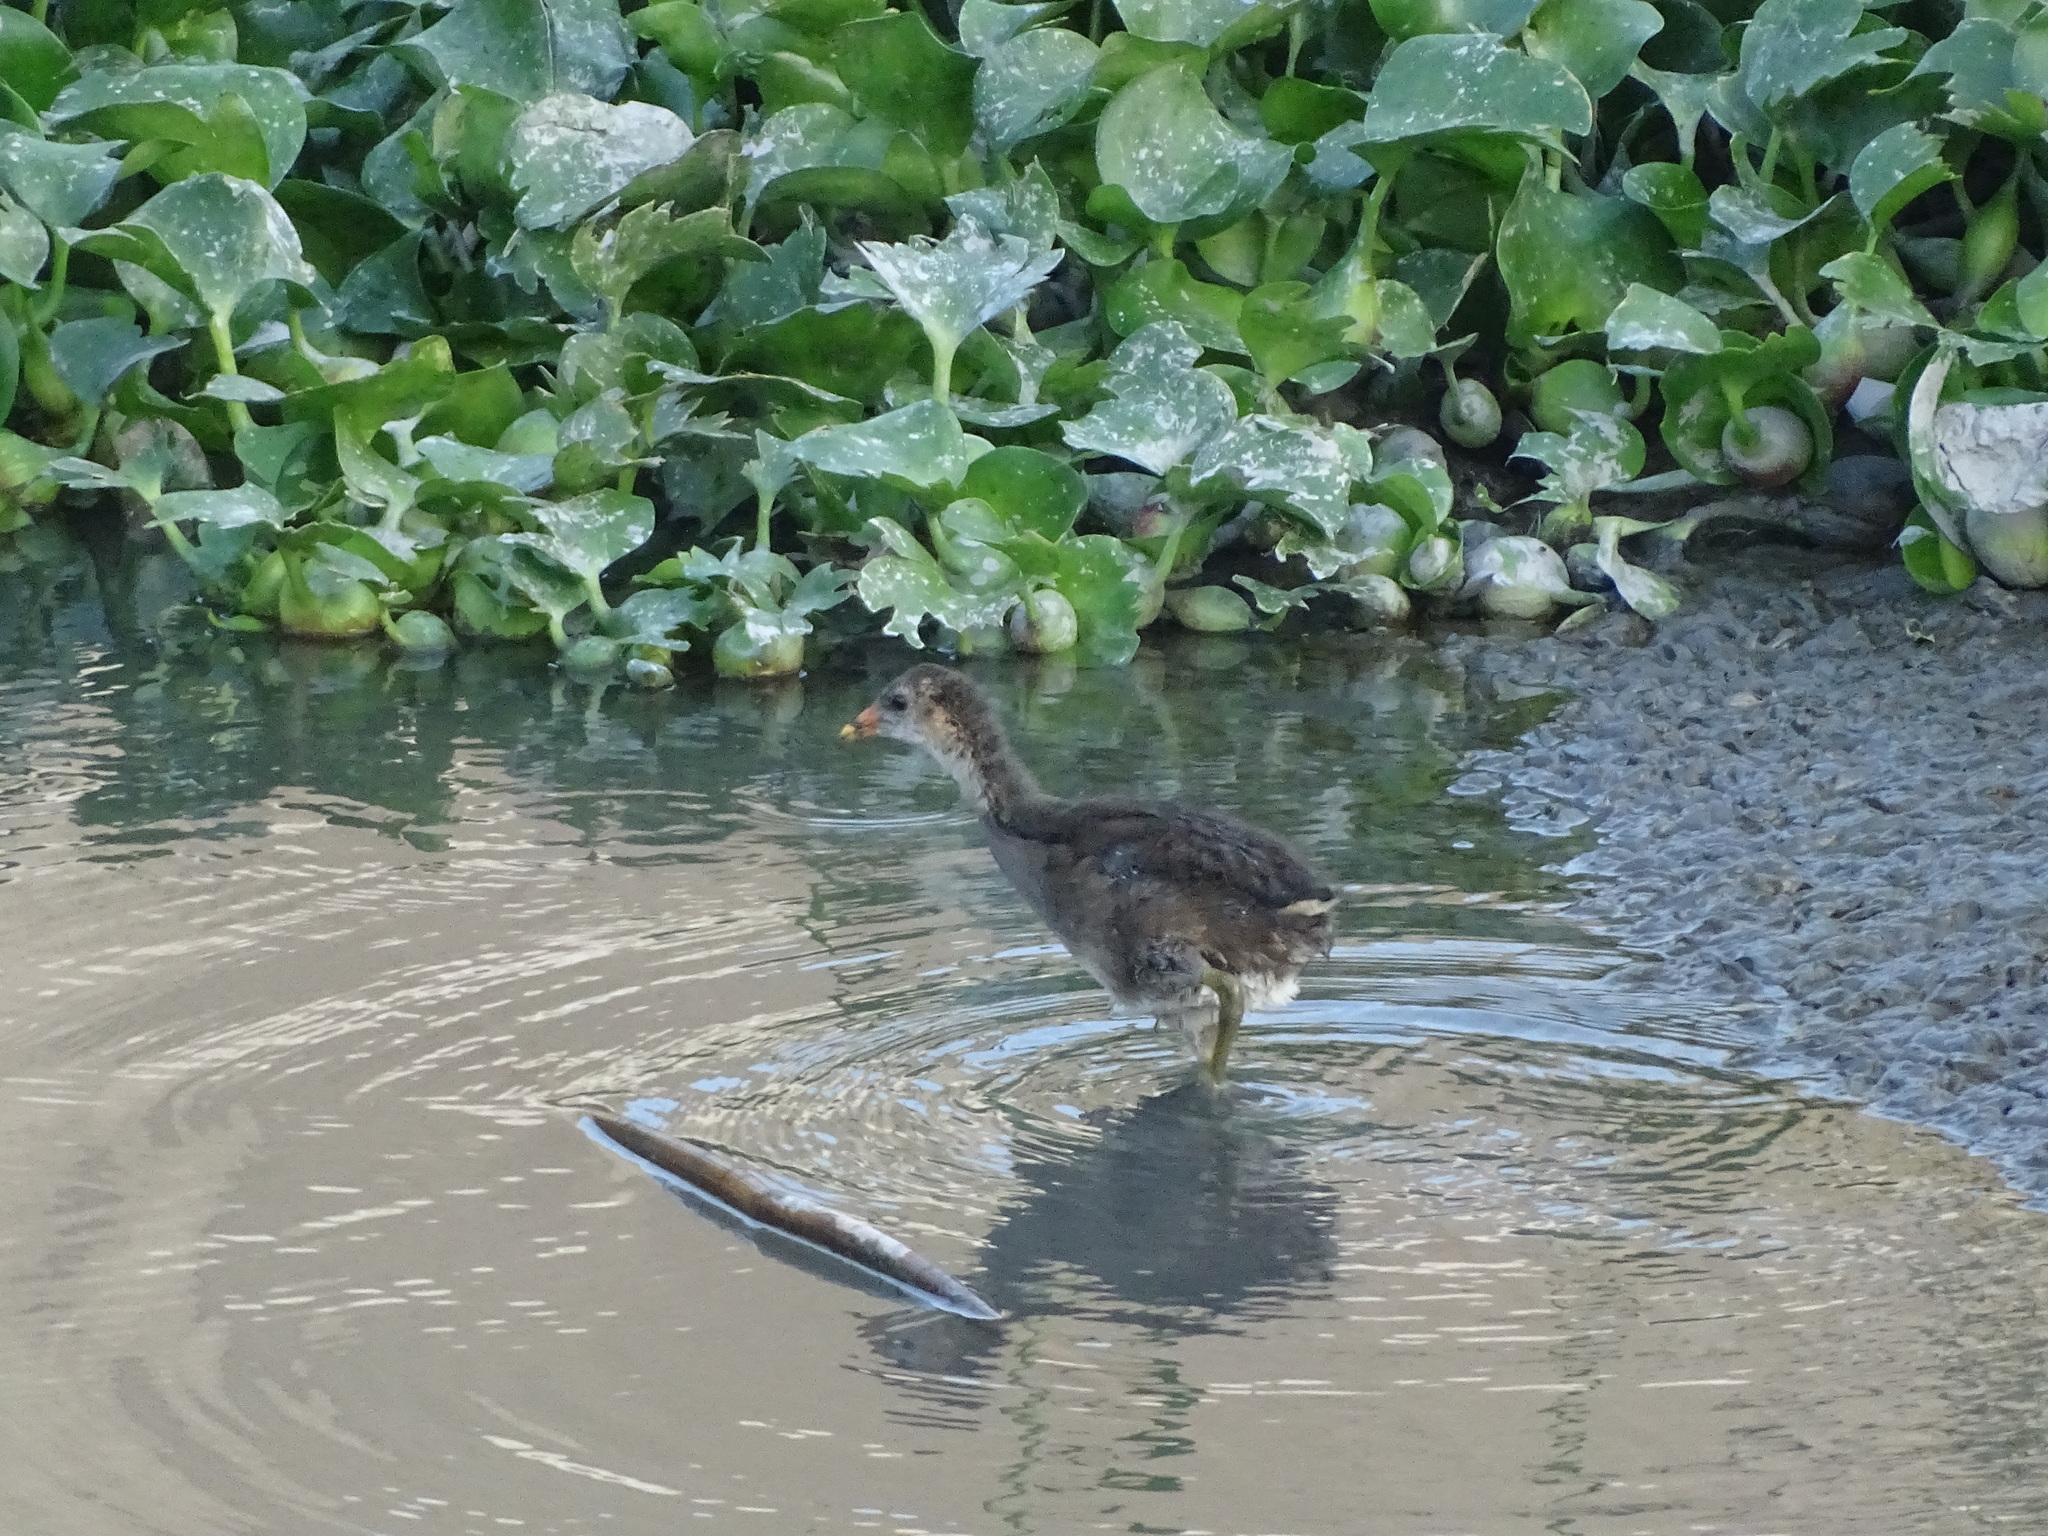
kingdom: Animalia
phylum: Chordata
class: Aves
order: Gruiformes
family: Rallidae
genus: Gallinula
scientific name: Gallinula chloropus
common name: Common moorhen
